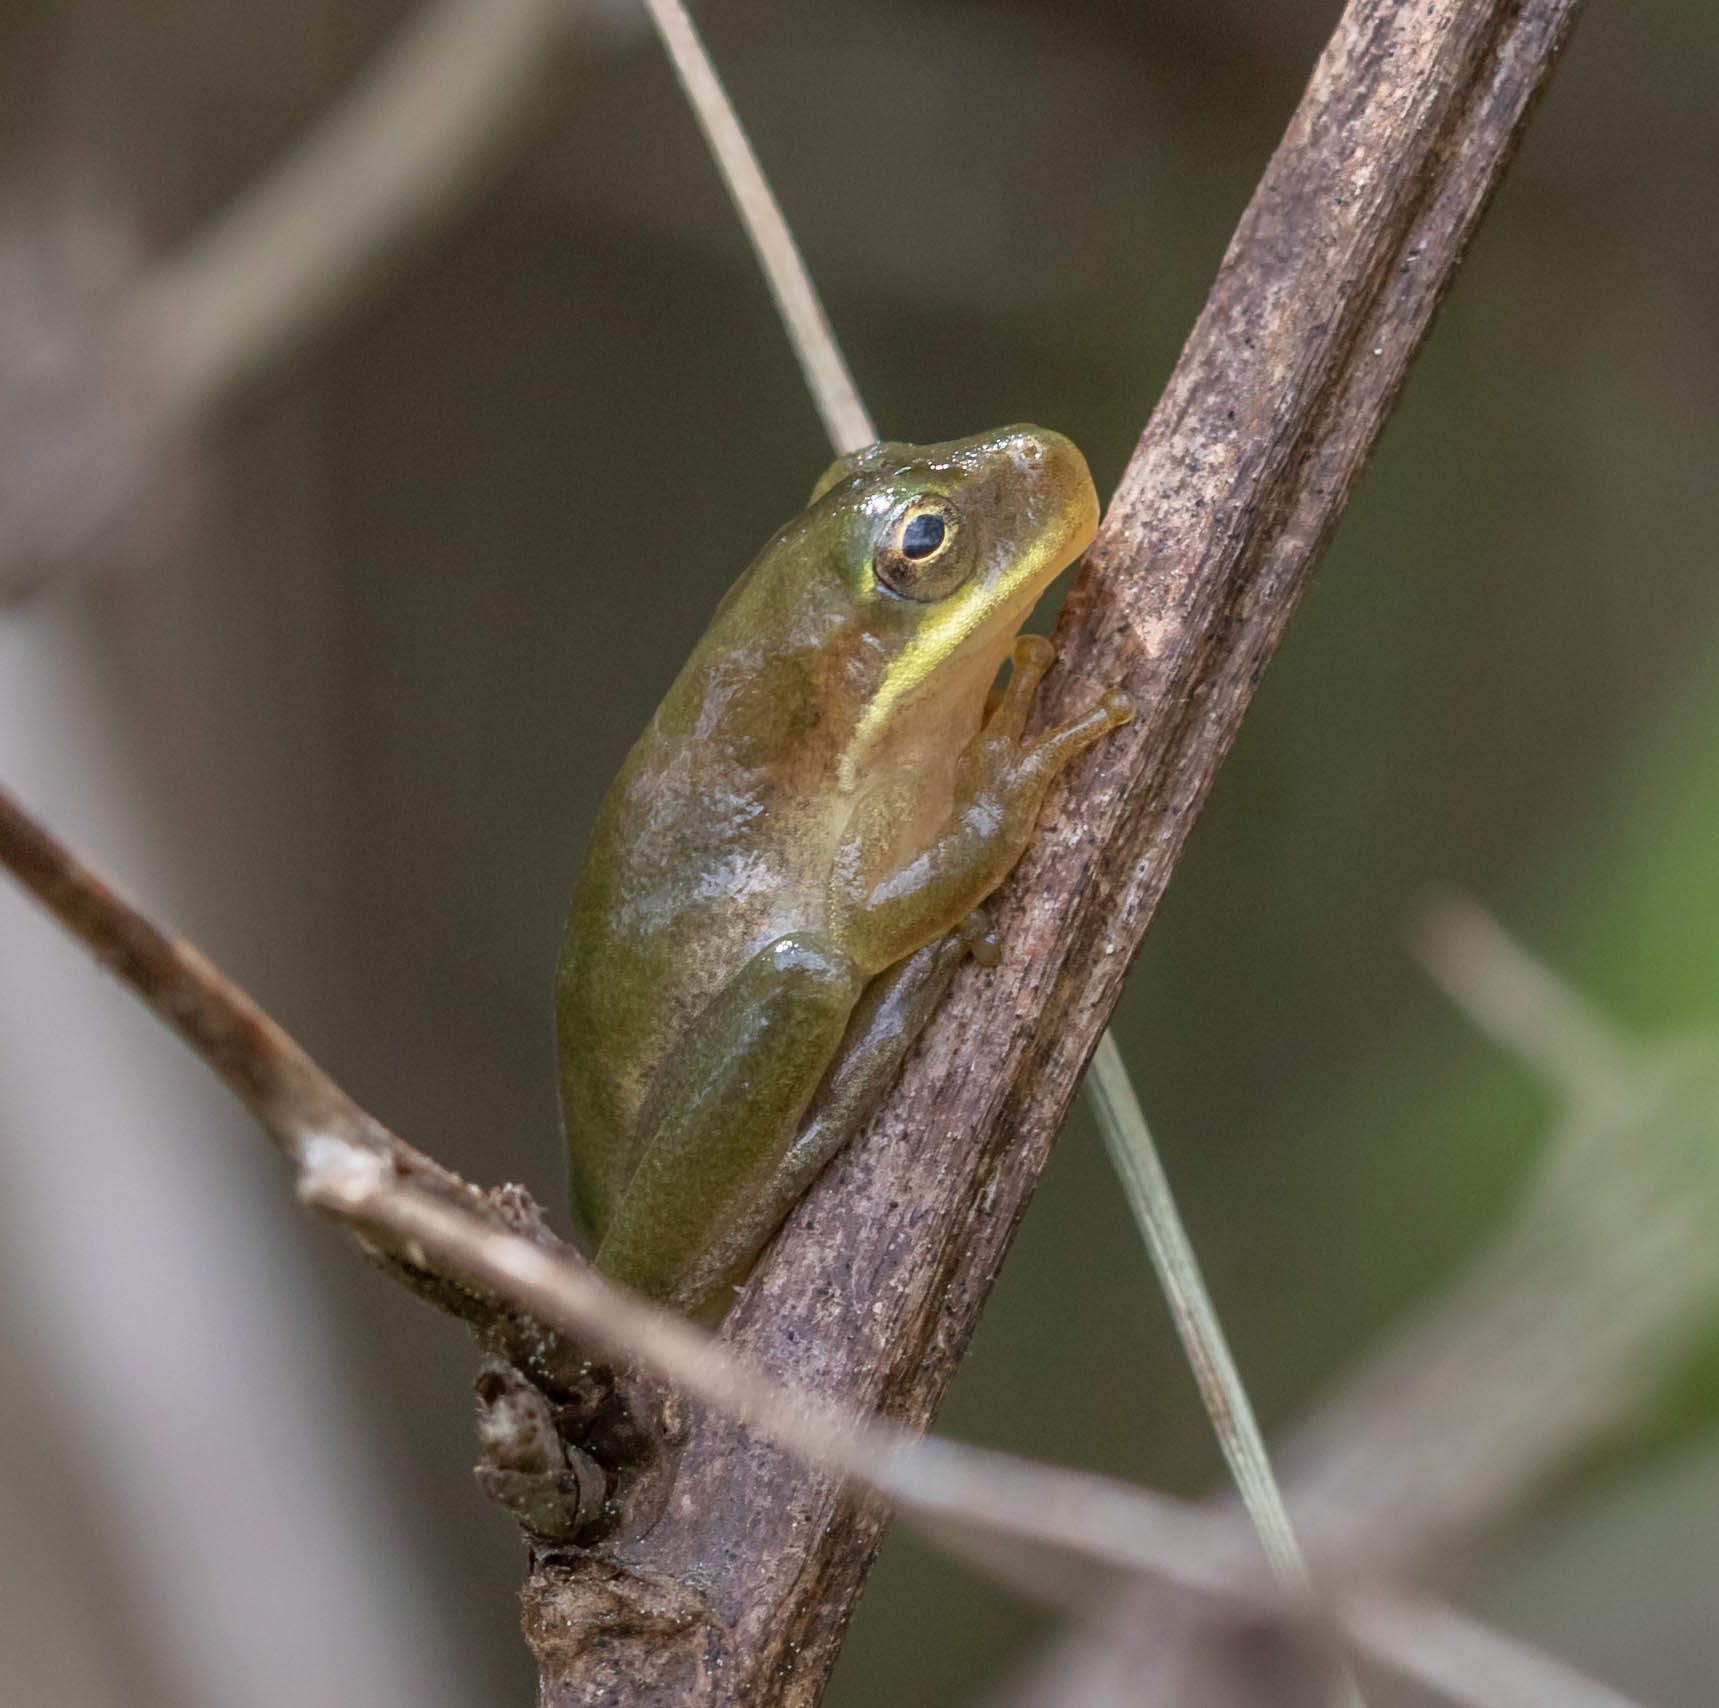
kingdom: Animalia
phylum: Chordata
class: Amphibia
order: Anura
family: Hylidae
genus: Dryophytes
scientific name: Dryophytes squirellus
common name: Squirrel treefrog
